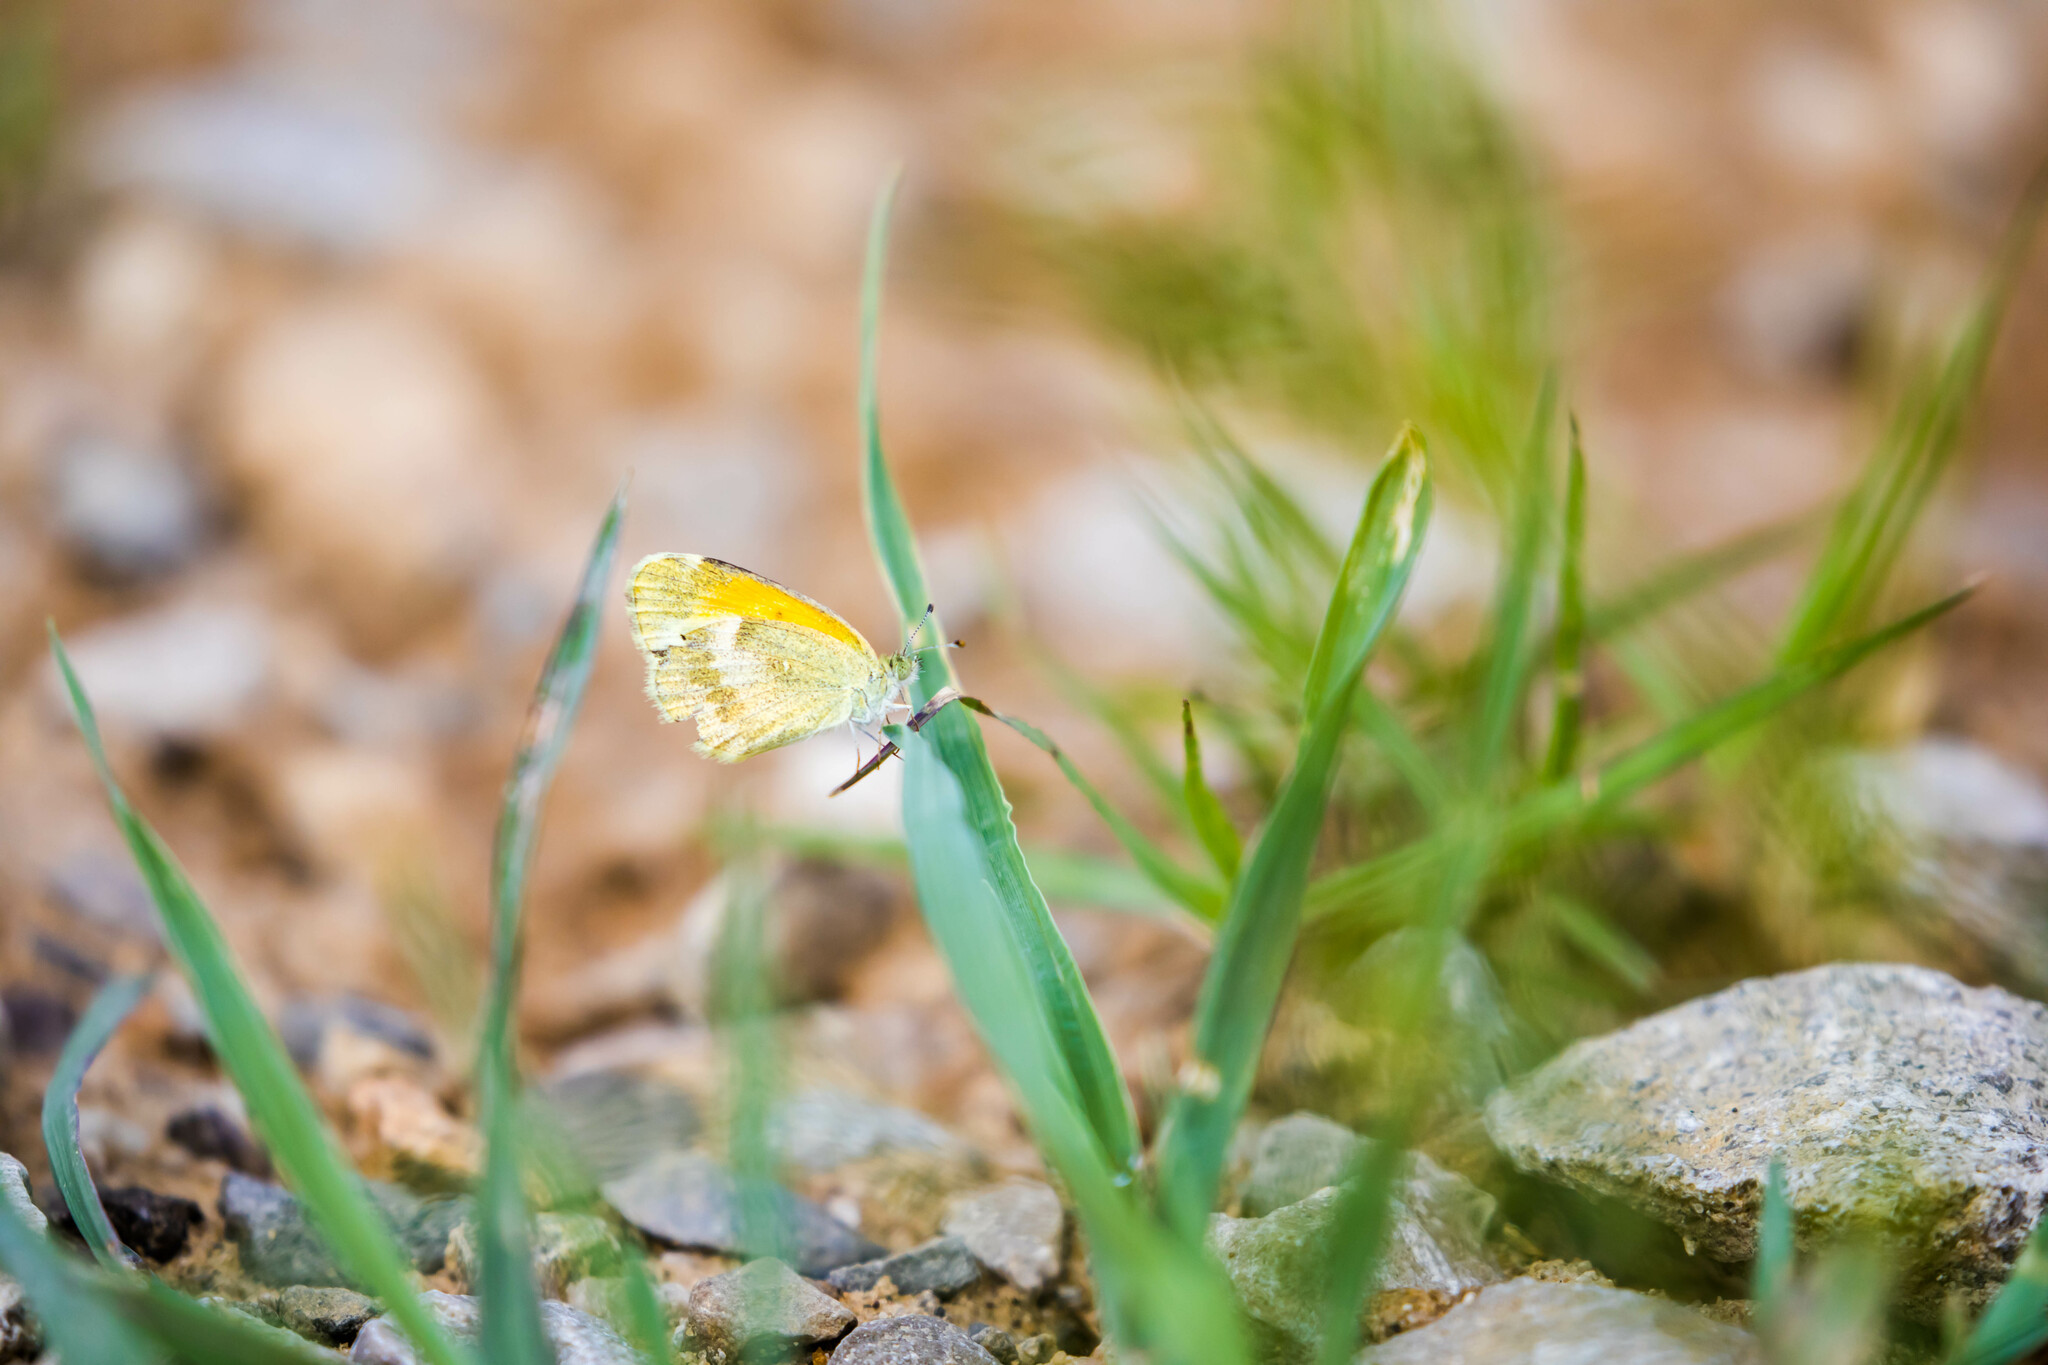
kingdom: Animalia
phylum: Arthropoda
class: Insecta
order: Lepidoptera
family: Pieridae
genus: Nathalis
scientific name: Nathalis iole
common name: Dainty sulphur
